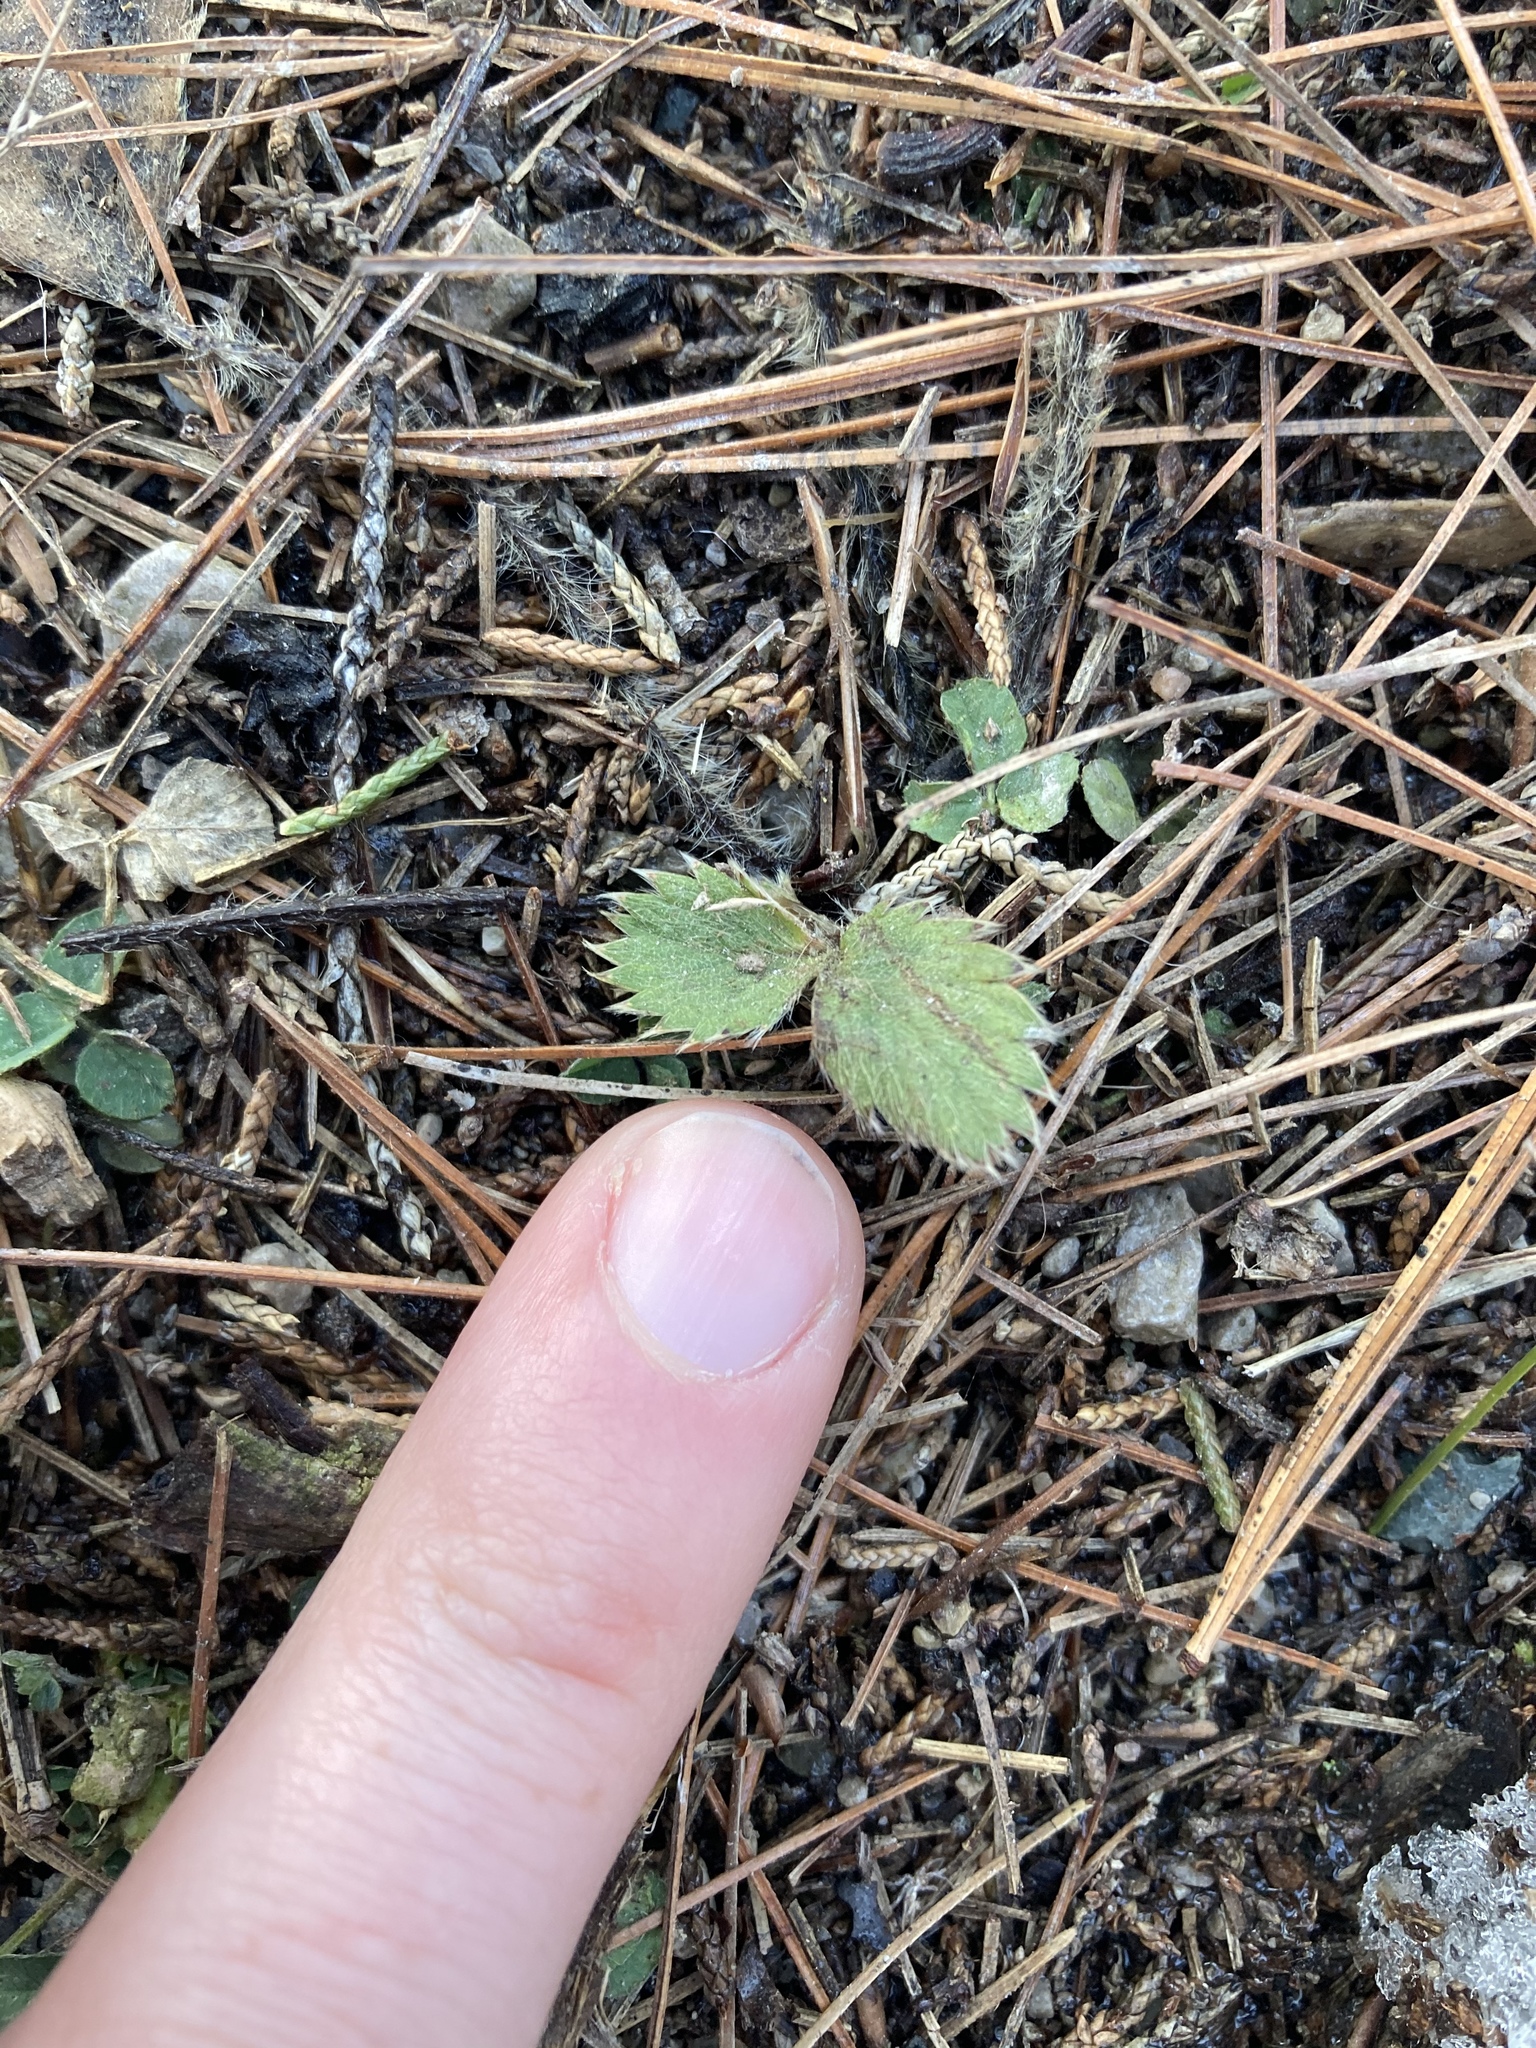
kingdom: Plantae
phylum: Tracheophyta
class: Magnoliopsida
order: Rosales
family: Rosaceae
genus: Fragaria
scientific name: Fragaria virginiana
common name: Thickleaved wild strawberry
